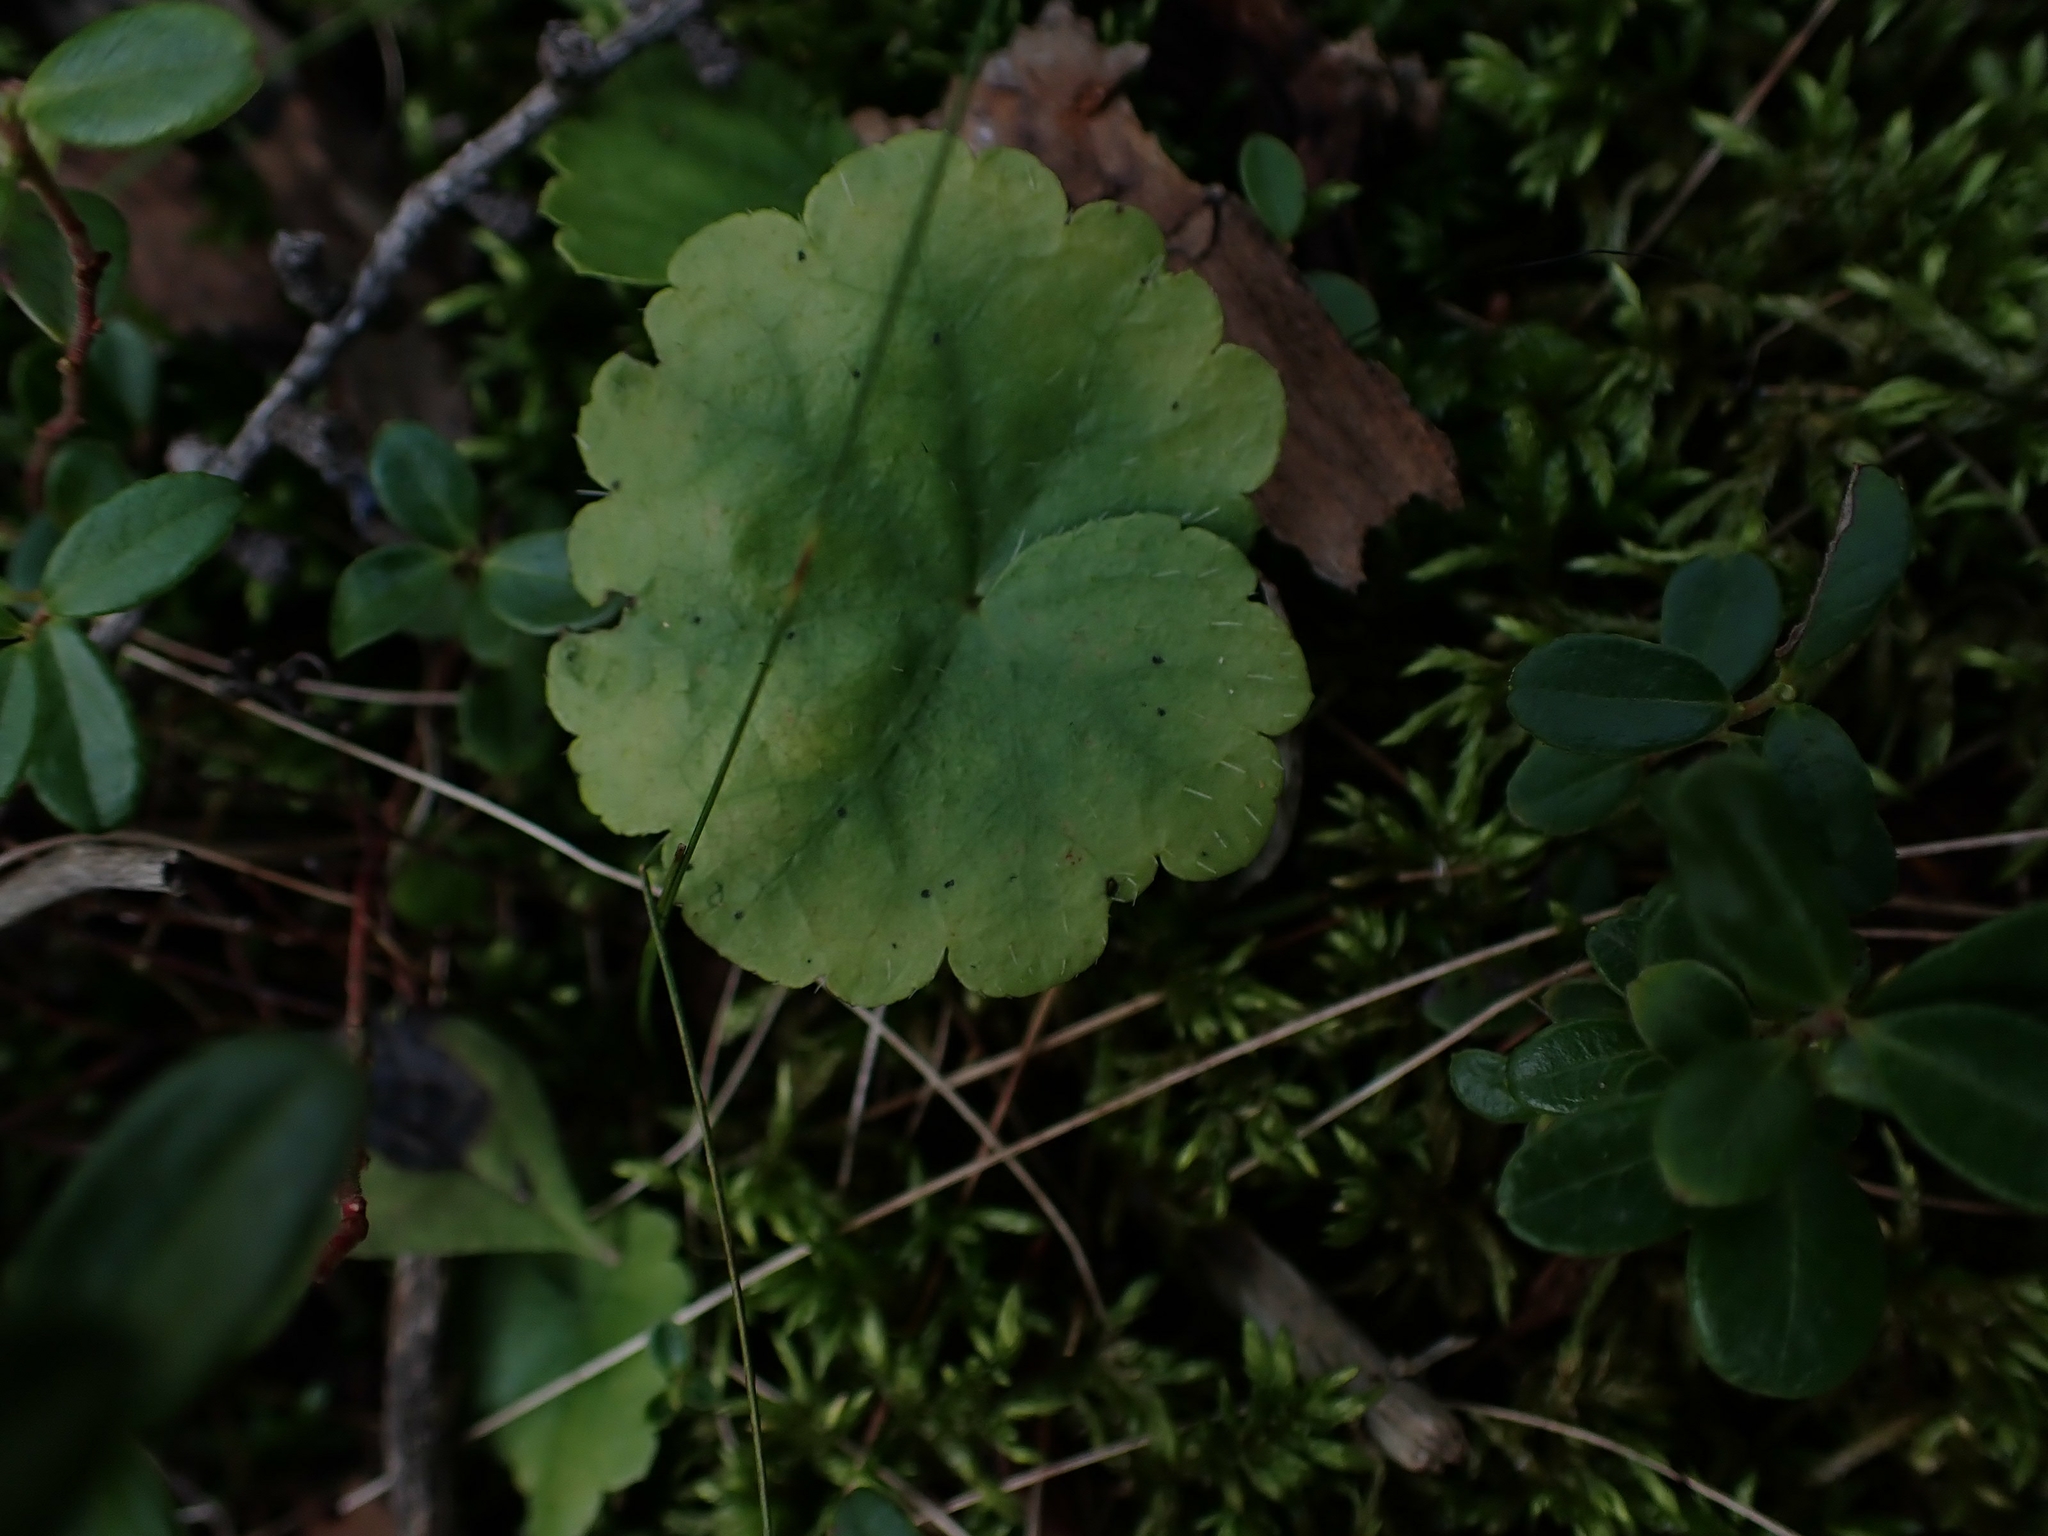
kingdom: Plantae
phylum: Tracheophyta
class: Magnoliopsida
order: Saxifragales
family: Saxifragaceae
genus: Mitella
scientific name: Mitella nuda
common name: Bare-stemmed bishop's-cap
